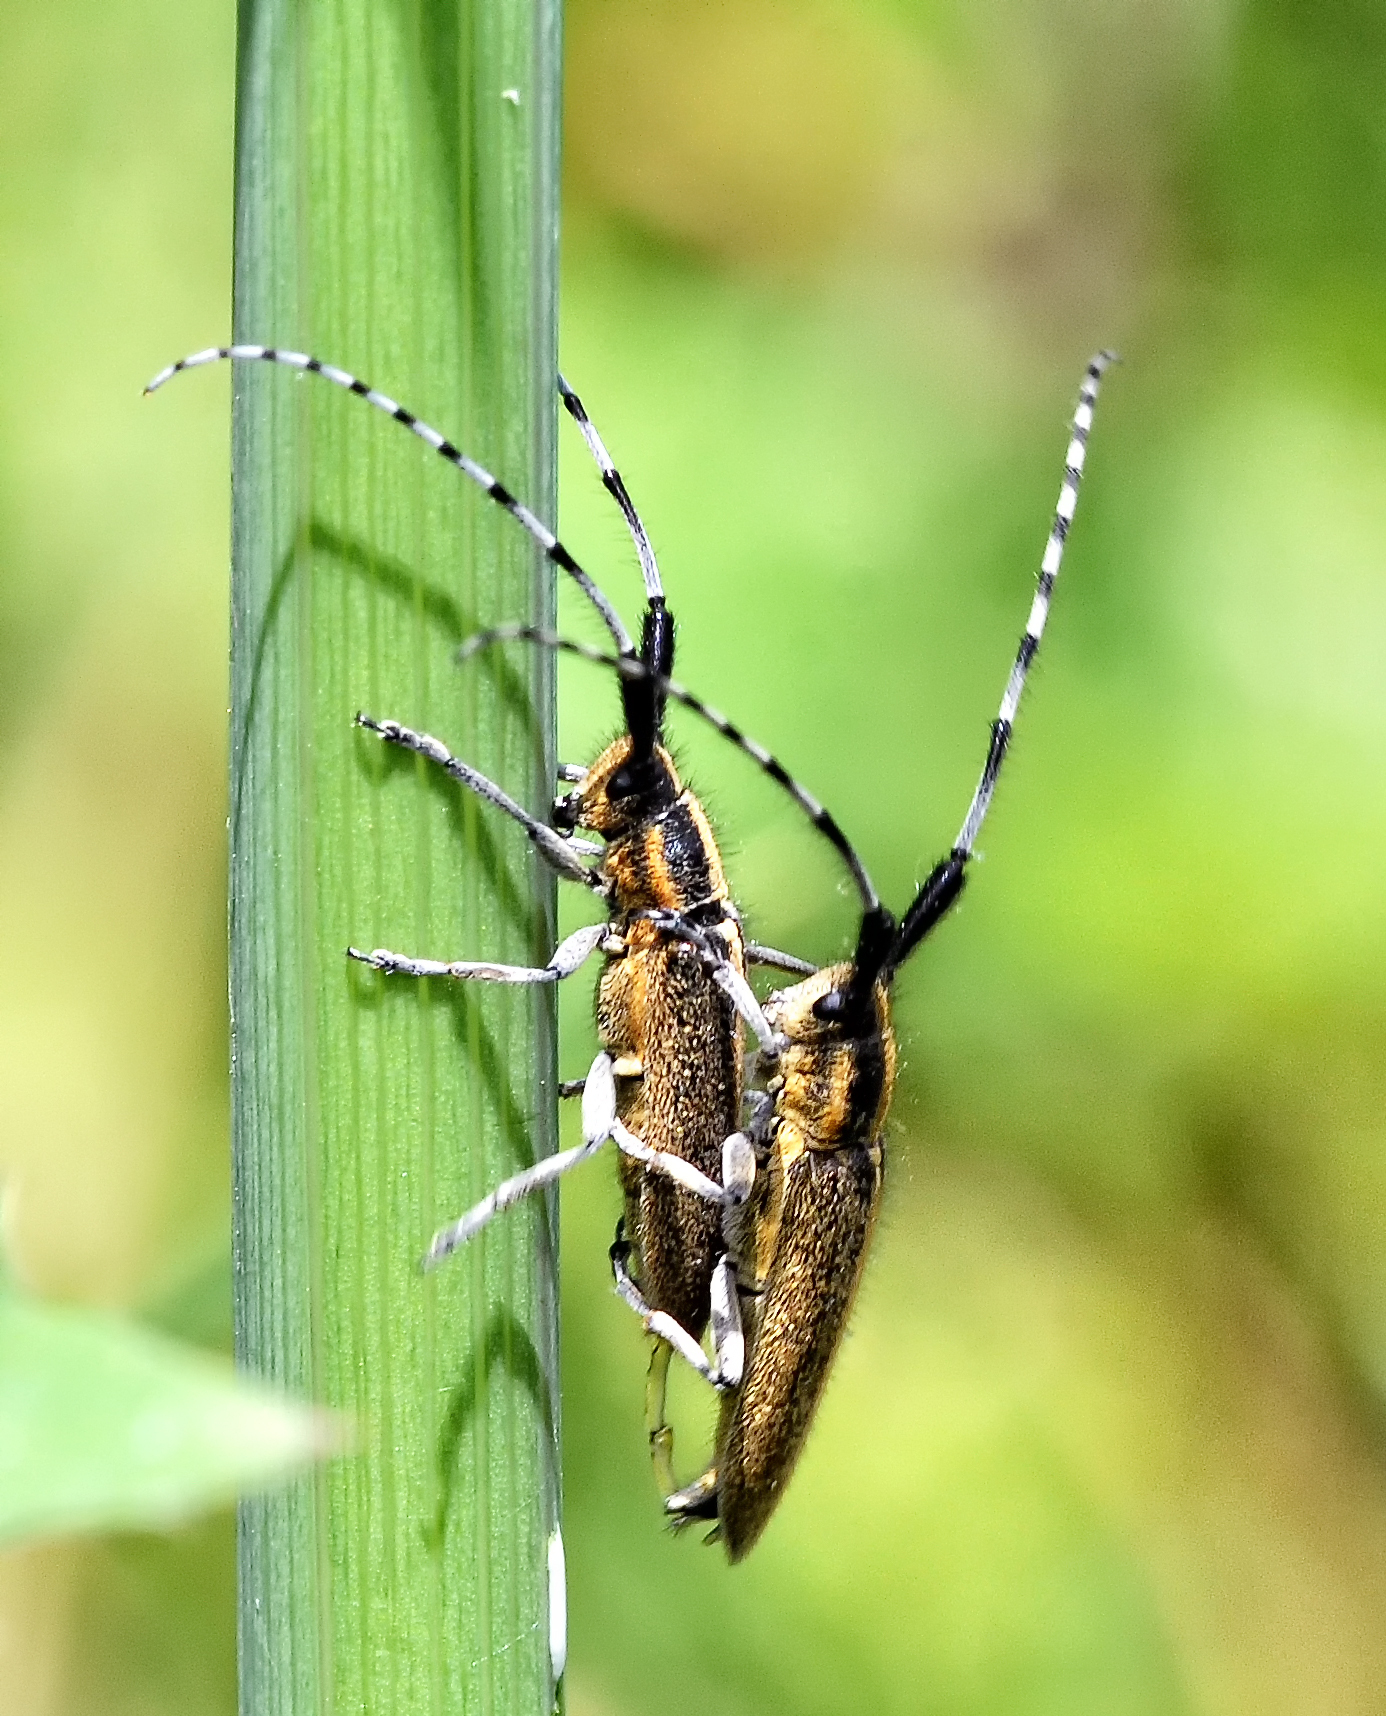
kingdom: Animalia
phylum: Arthropoda
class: Insecta
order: Coleoptera
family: Cerambycidae
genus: Agapanthia
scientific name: Agapanthia villosoviridescens
